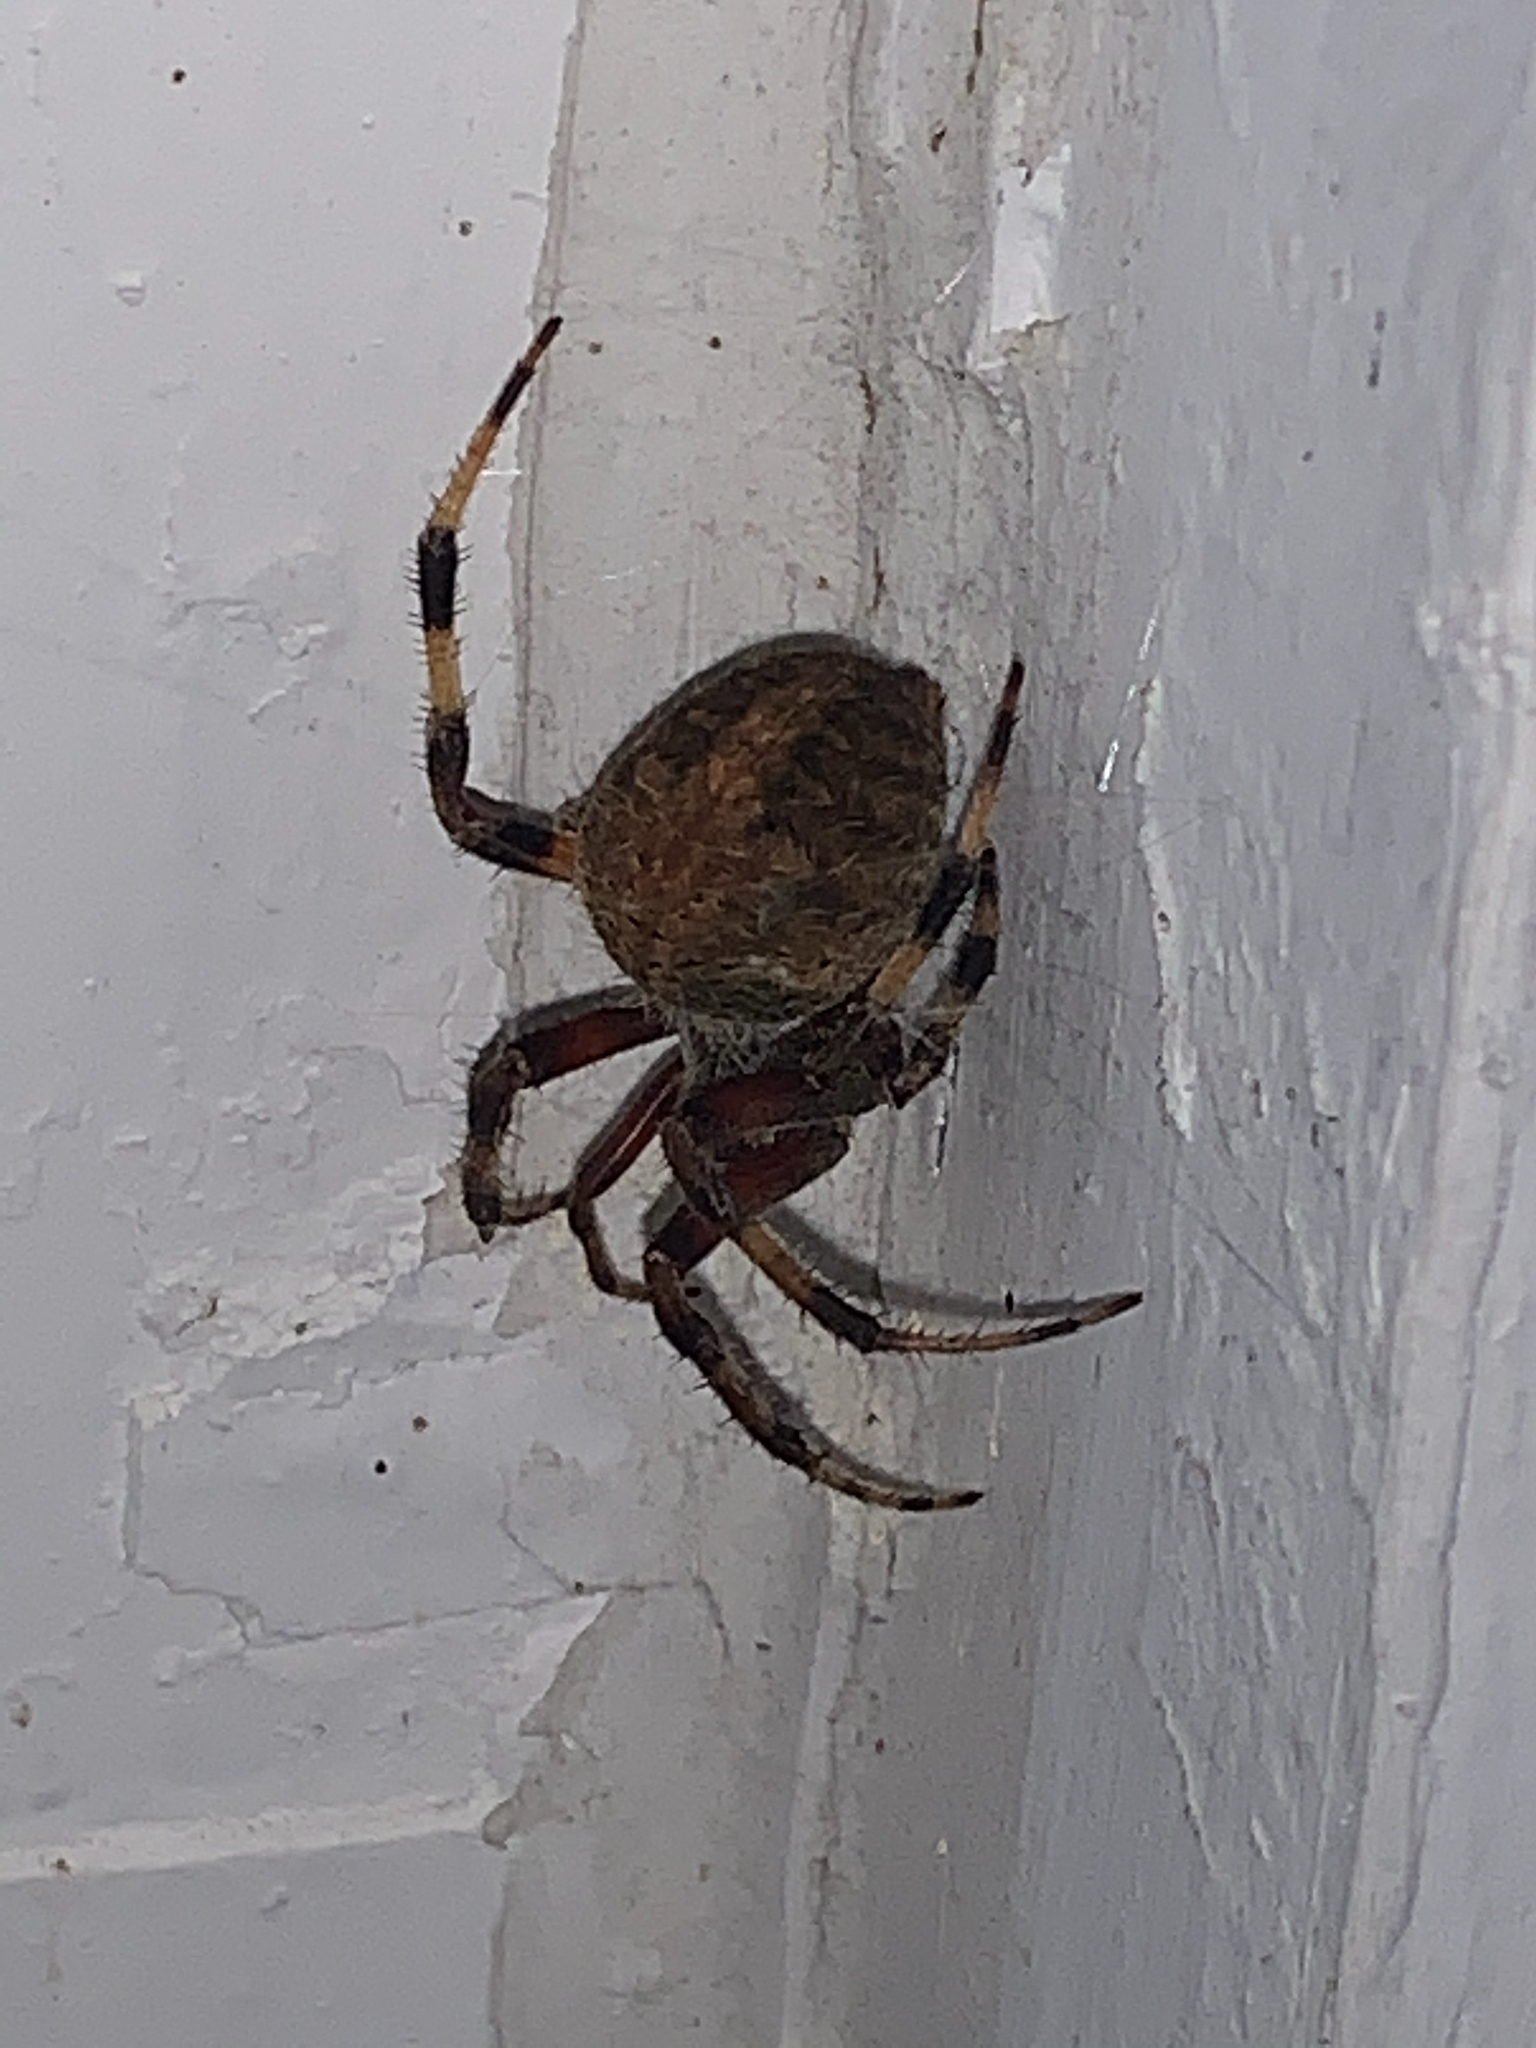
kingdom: Animalia
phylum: Arthropoda
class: Arachnida
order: Araneae
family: Araneidae
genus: Neoscona
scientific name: Neoscona crucifera
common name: Spotted orbweaver
